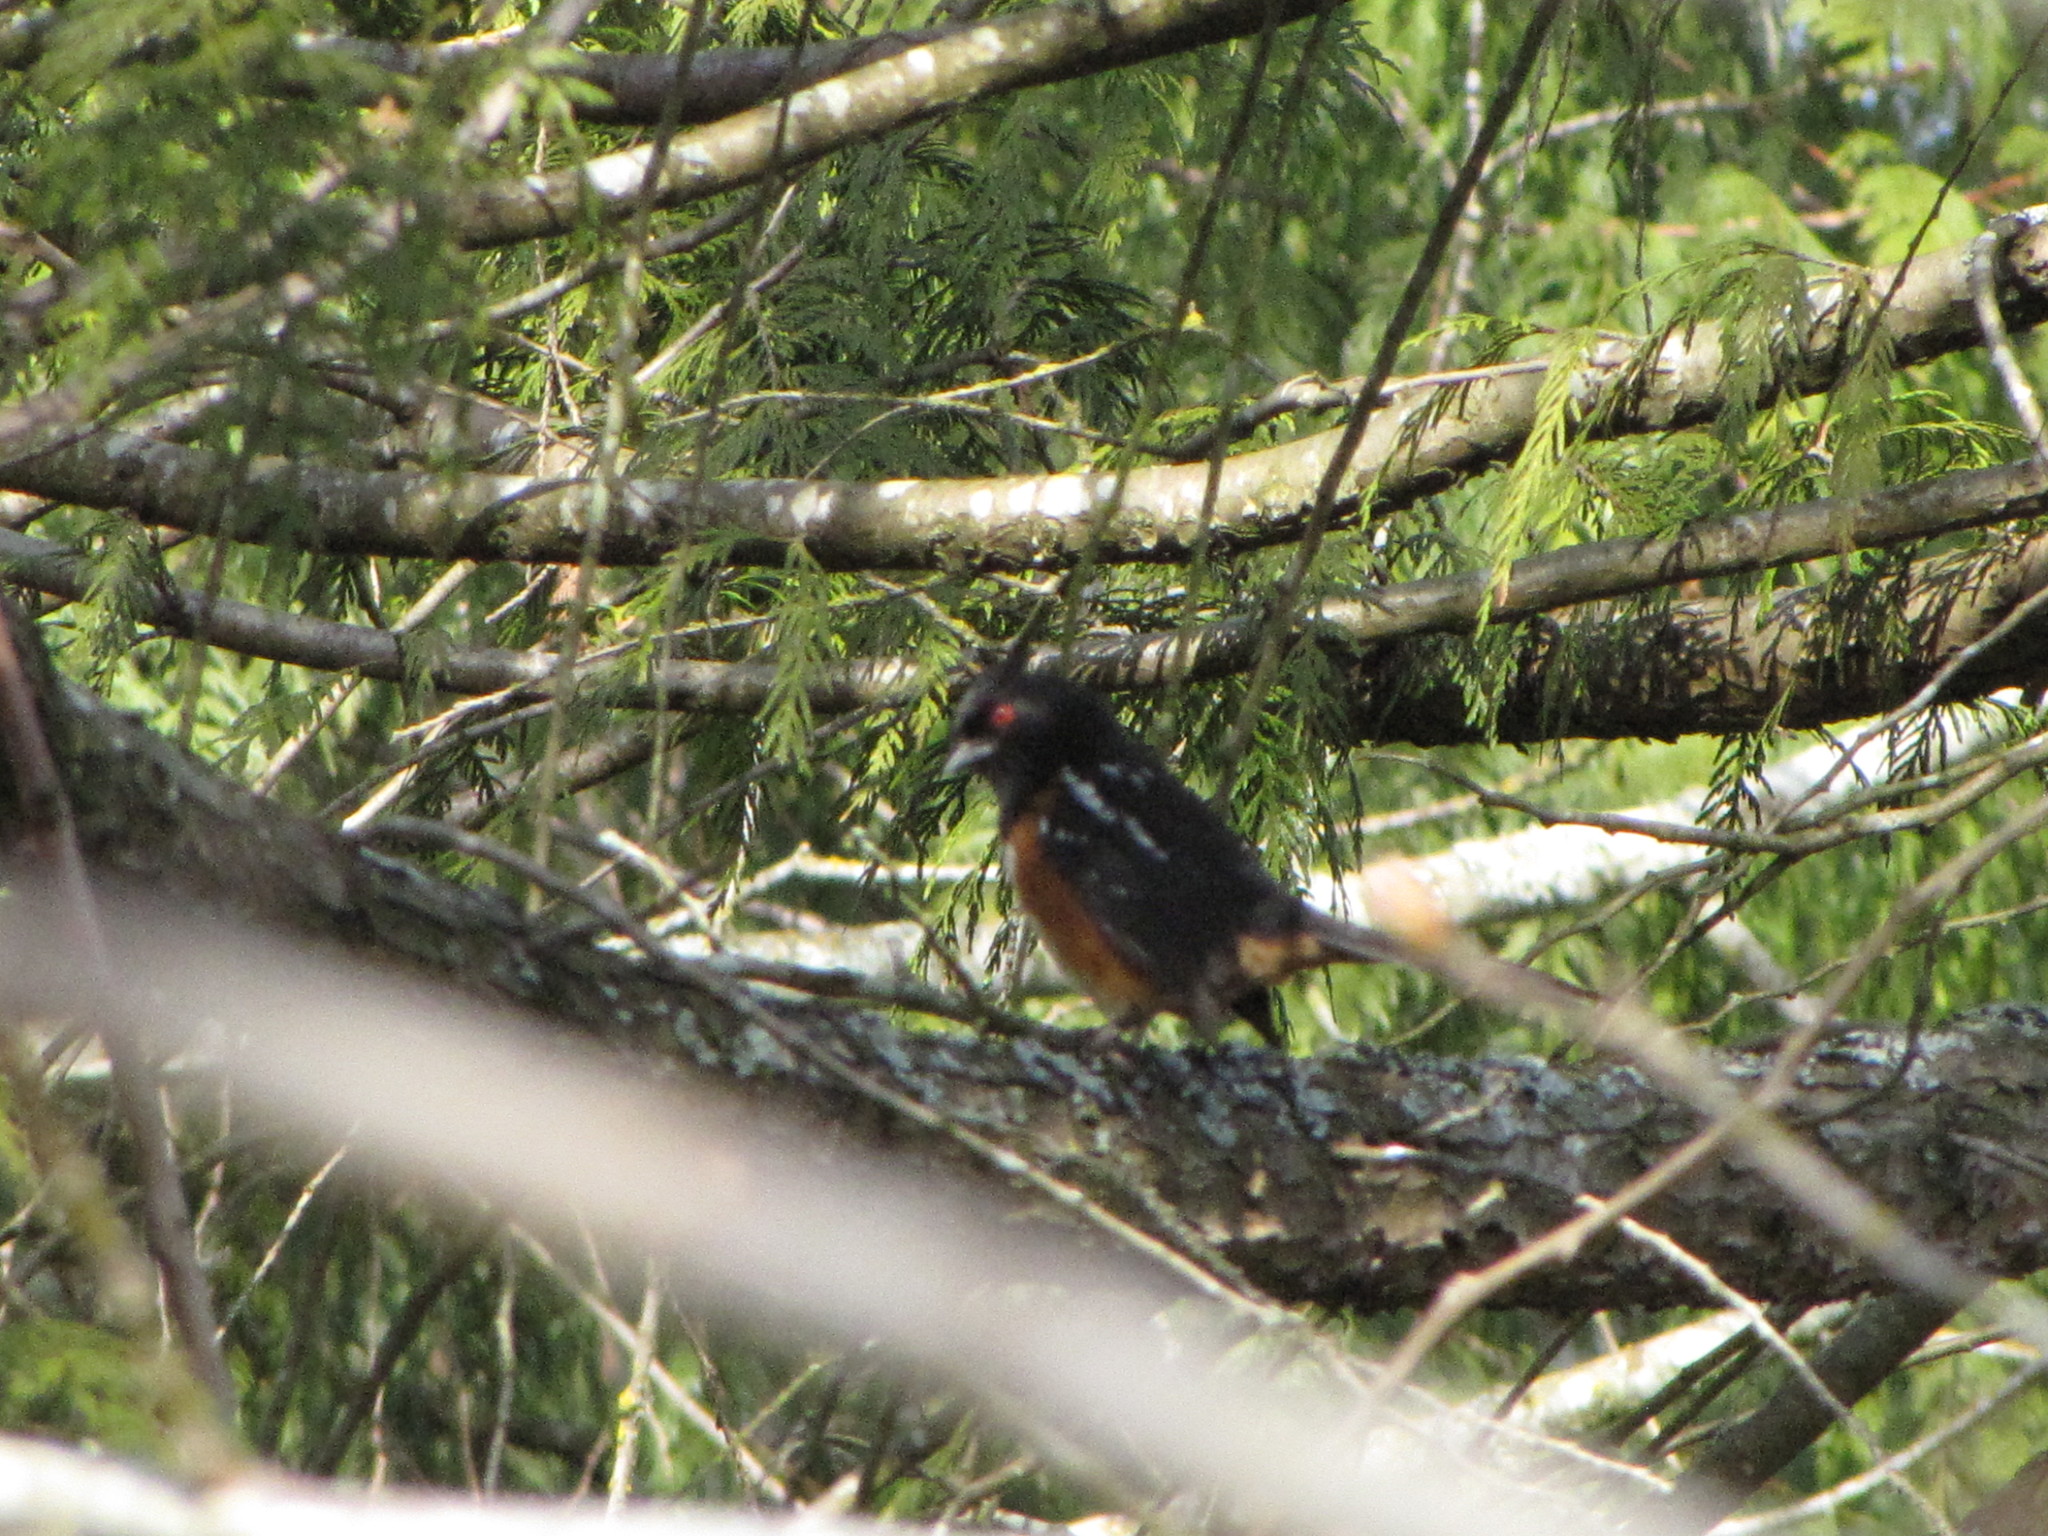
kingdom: Animalia
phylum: Chordata
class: Aves
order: Passeriformes
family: Passerellidae
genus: Pipilo
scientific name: Pipilo maculatus
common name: Spotted towhee
